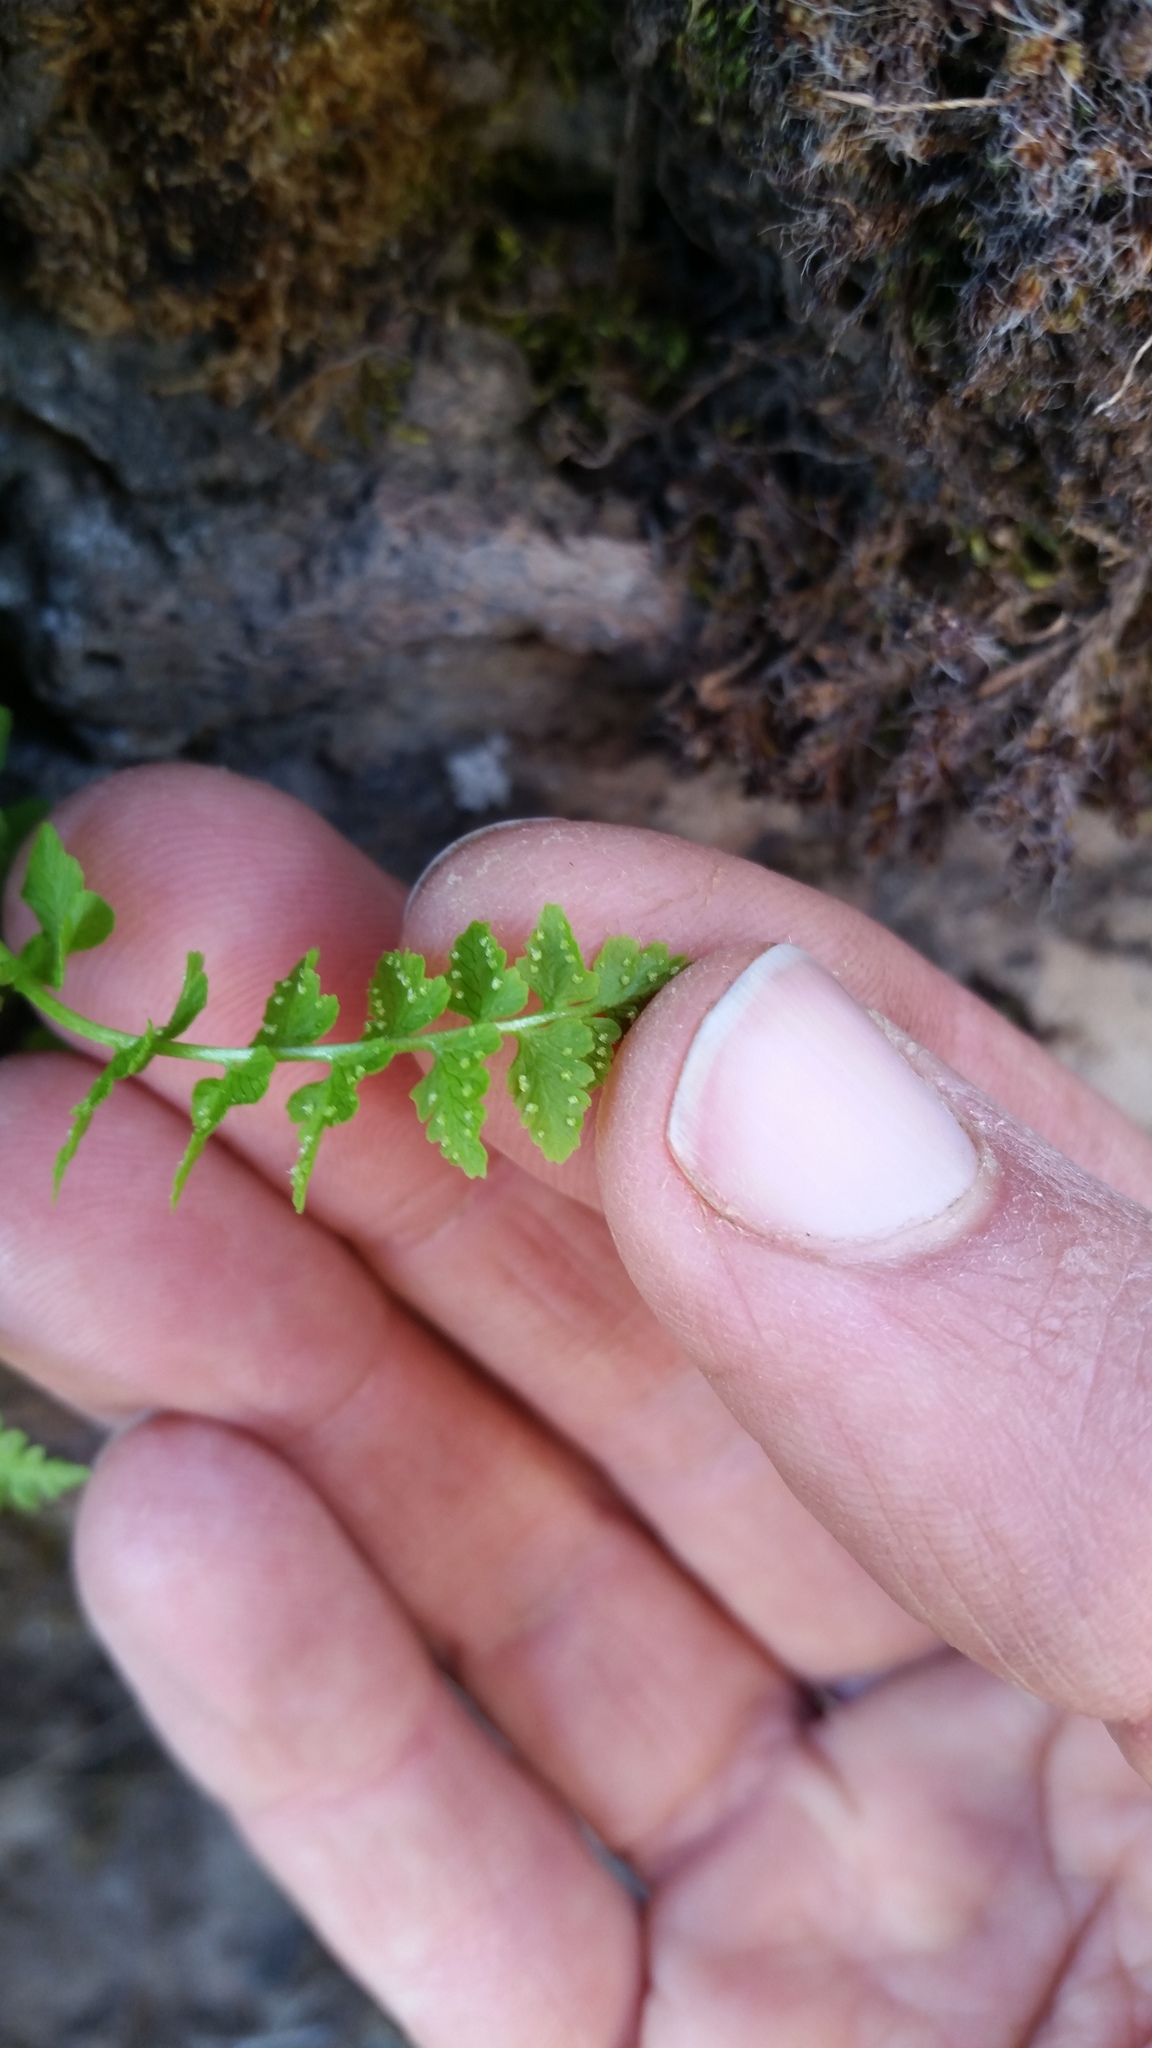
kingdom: Plantae
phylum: Tracheophyta
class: Polypodiopsida
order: Polypodiales
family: Cystopteridaceae
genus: Cystopteris
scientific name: Cystopteris fragilis
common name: Brittle bladder fern
